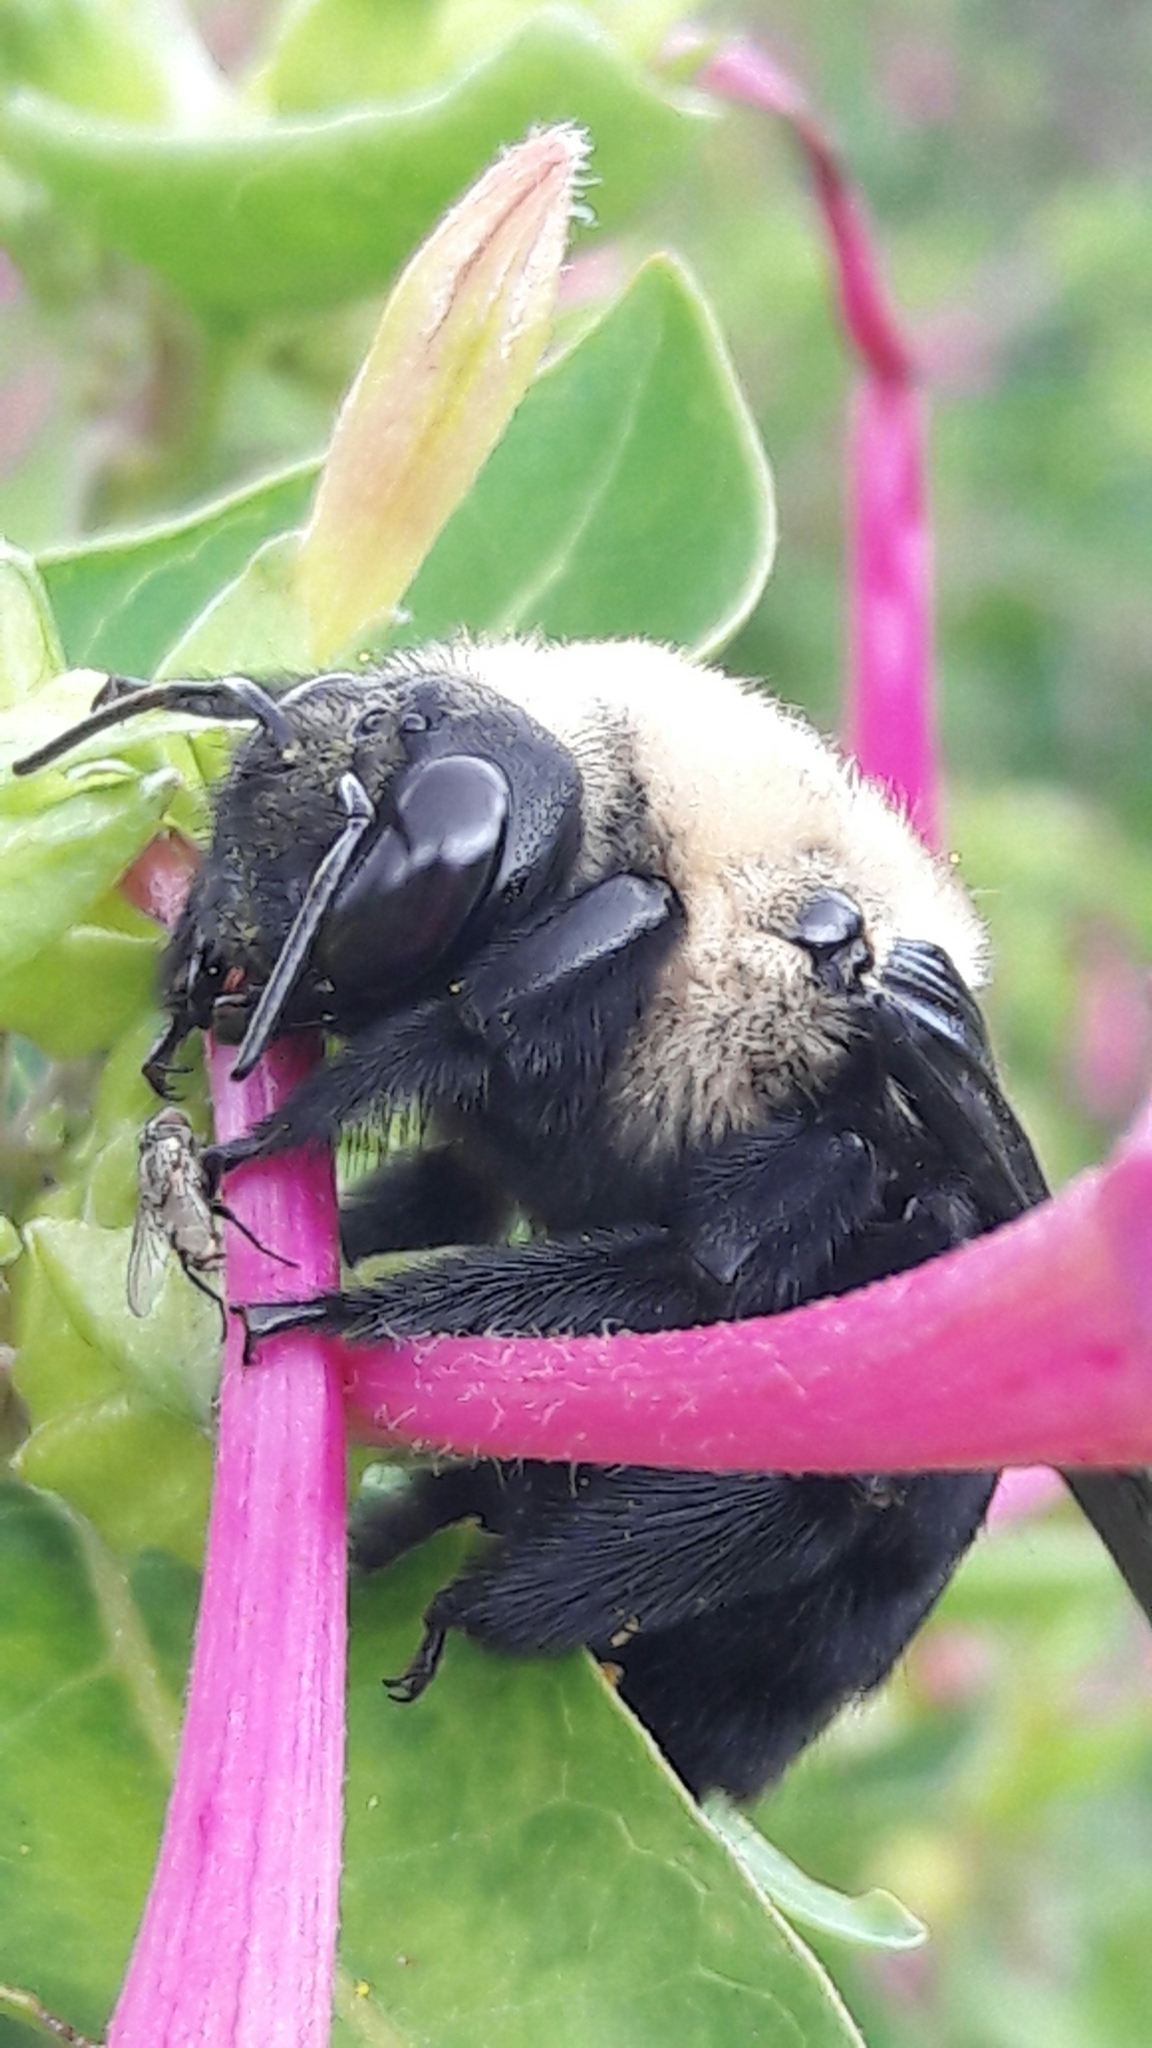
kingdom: Animalia
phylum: Arthropoda
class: Insecta
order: Hymenoptera
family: Apidae
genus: Xylocopa
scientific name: Xylocopa grisescens
